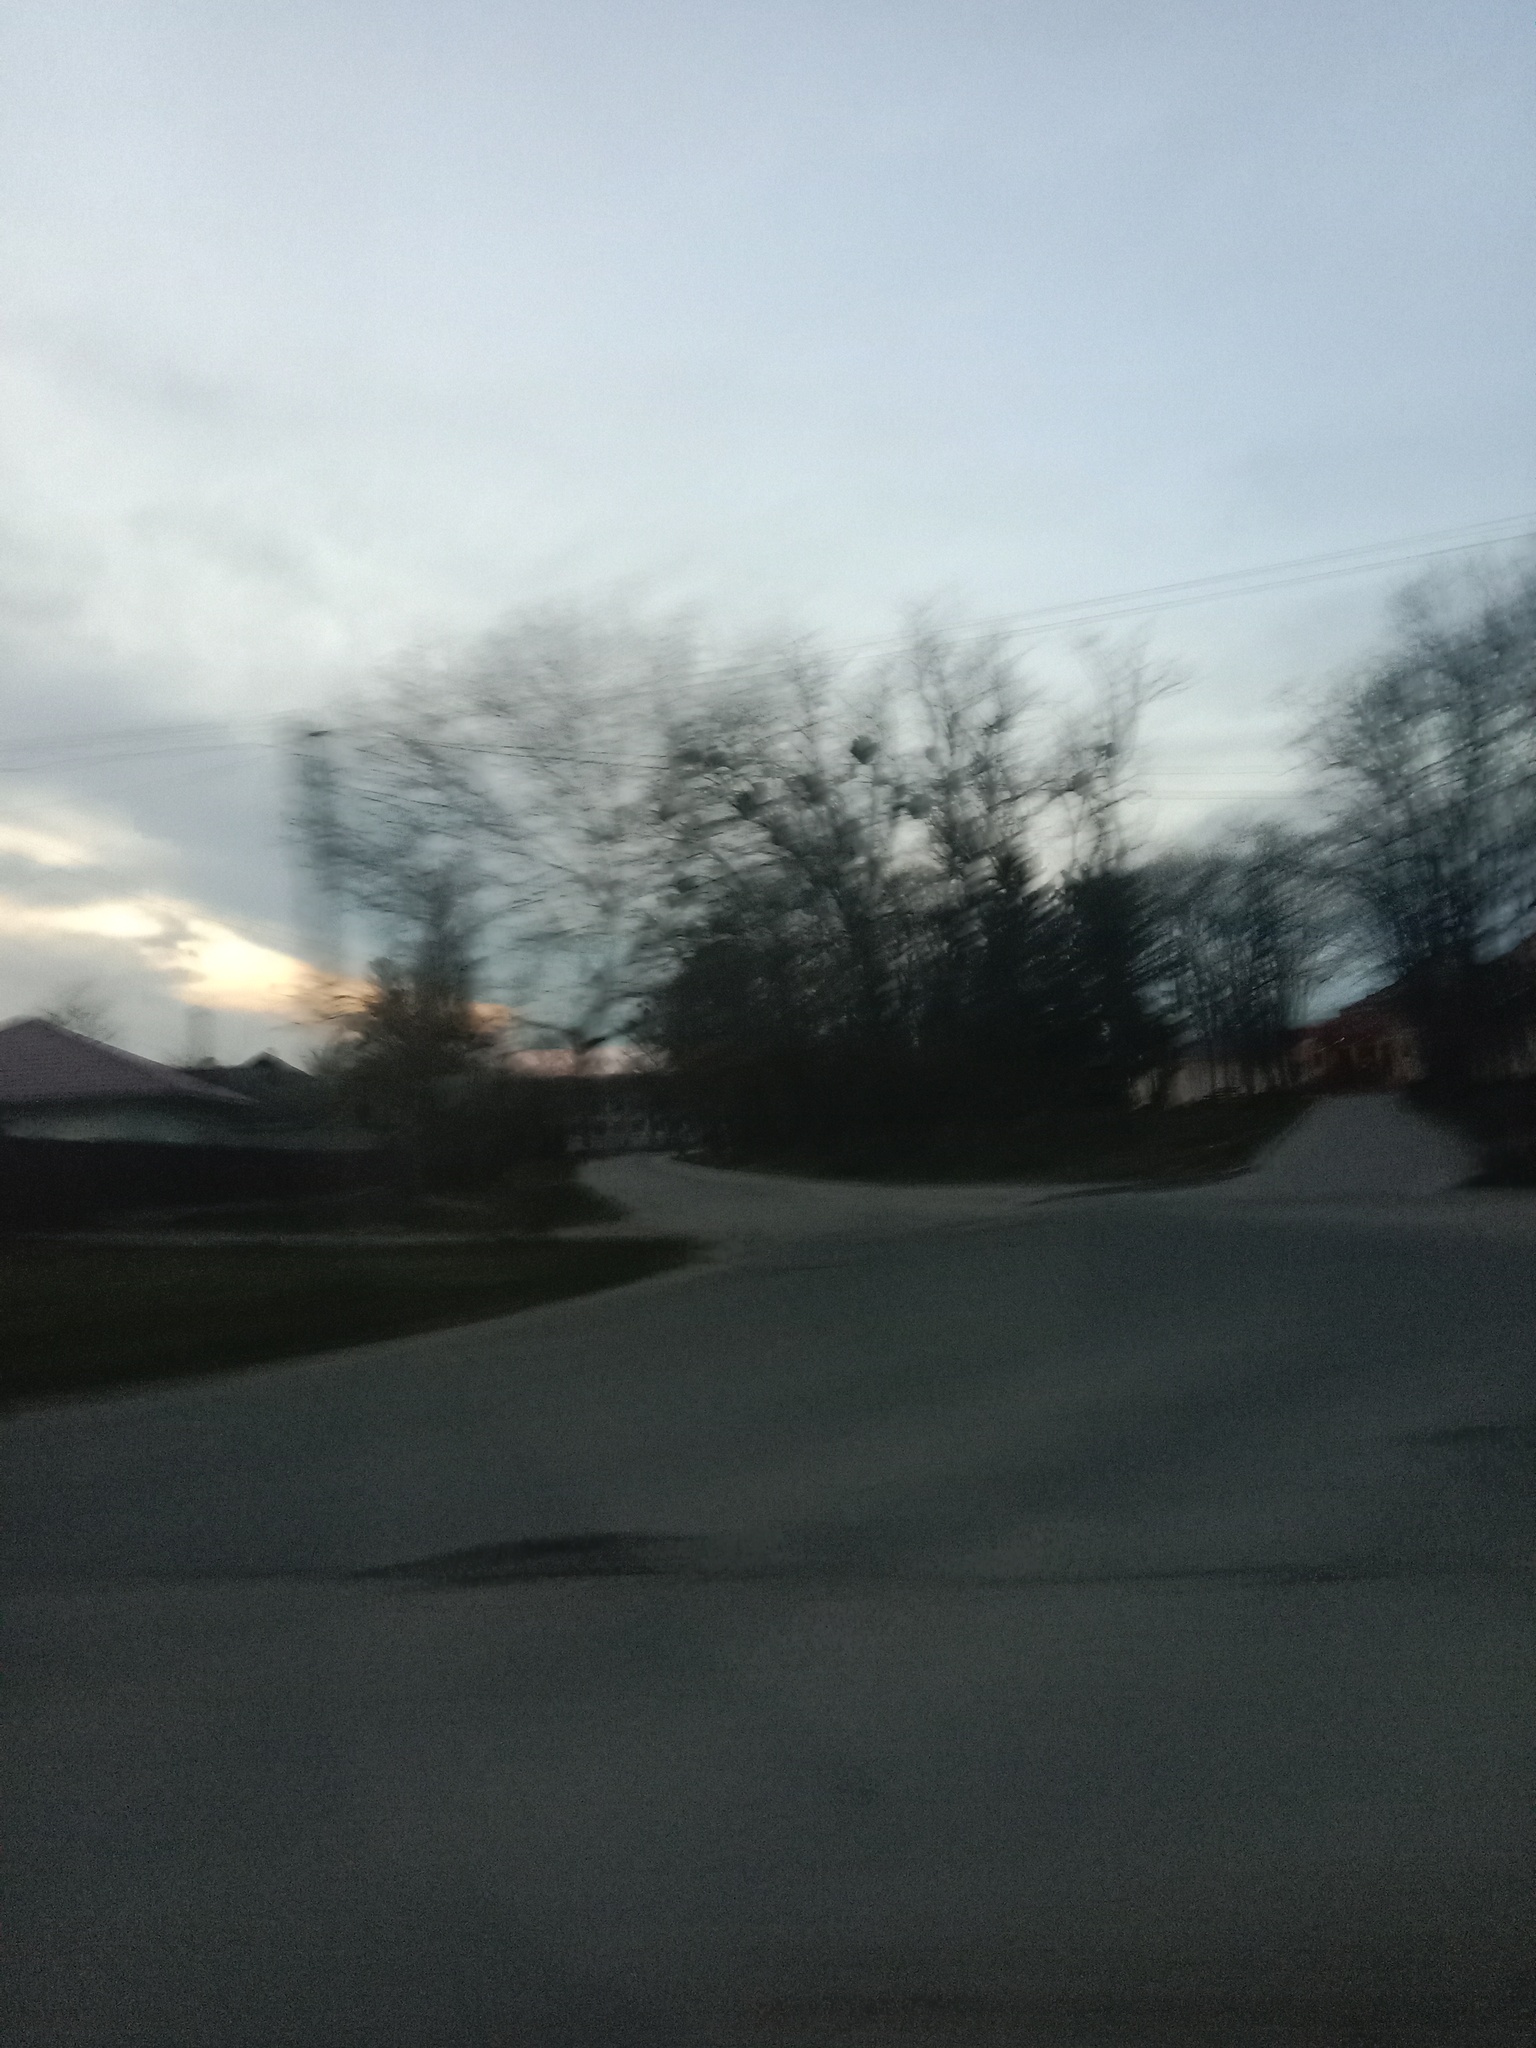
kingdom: Plantae
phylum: Tracheophyta
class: Magnoliopsida
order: Santalales
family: Viscaceae
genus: Viscum
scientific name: Viscum album
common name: Mistletoe
